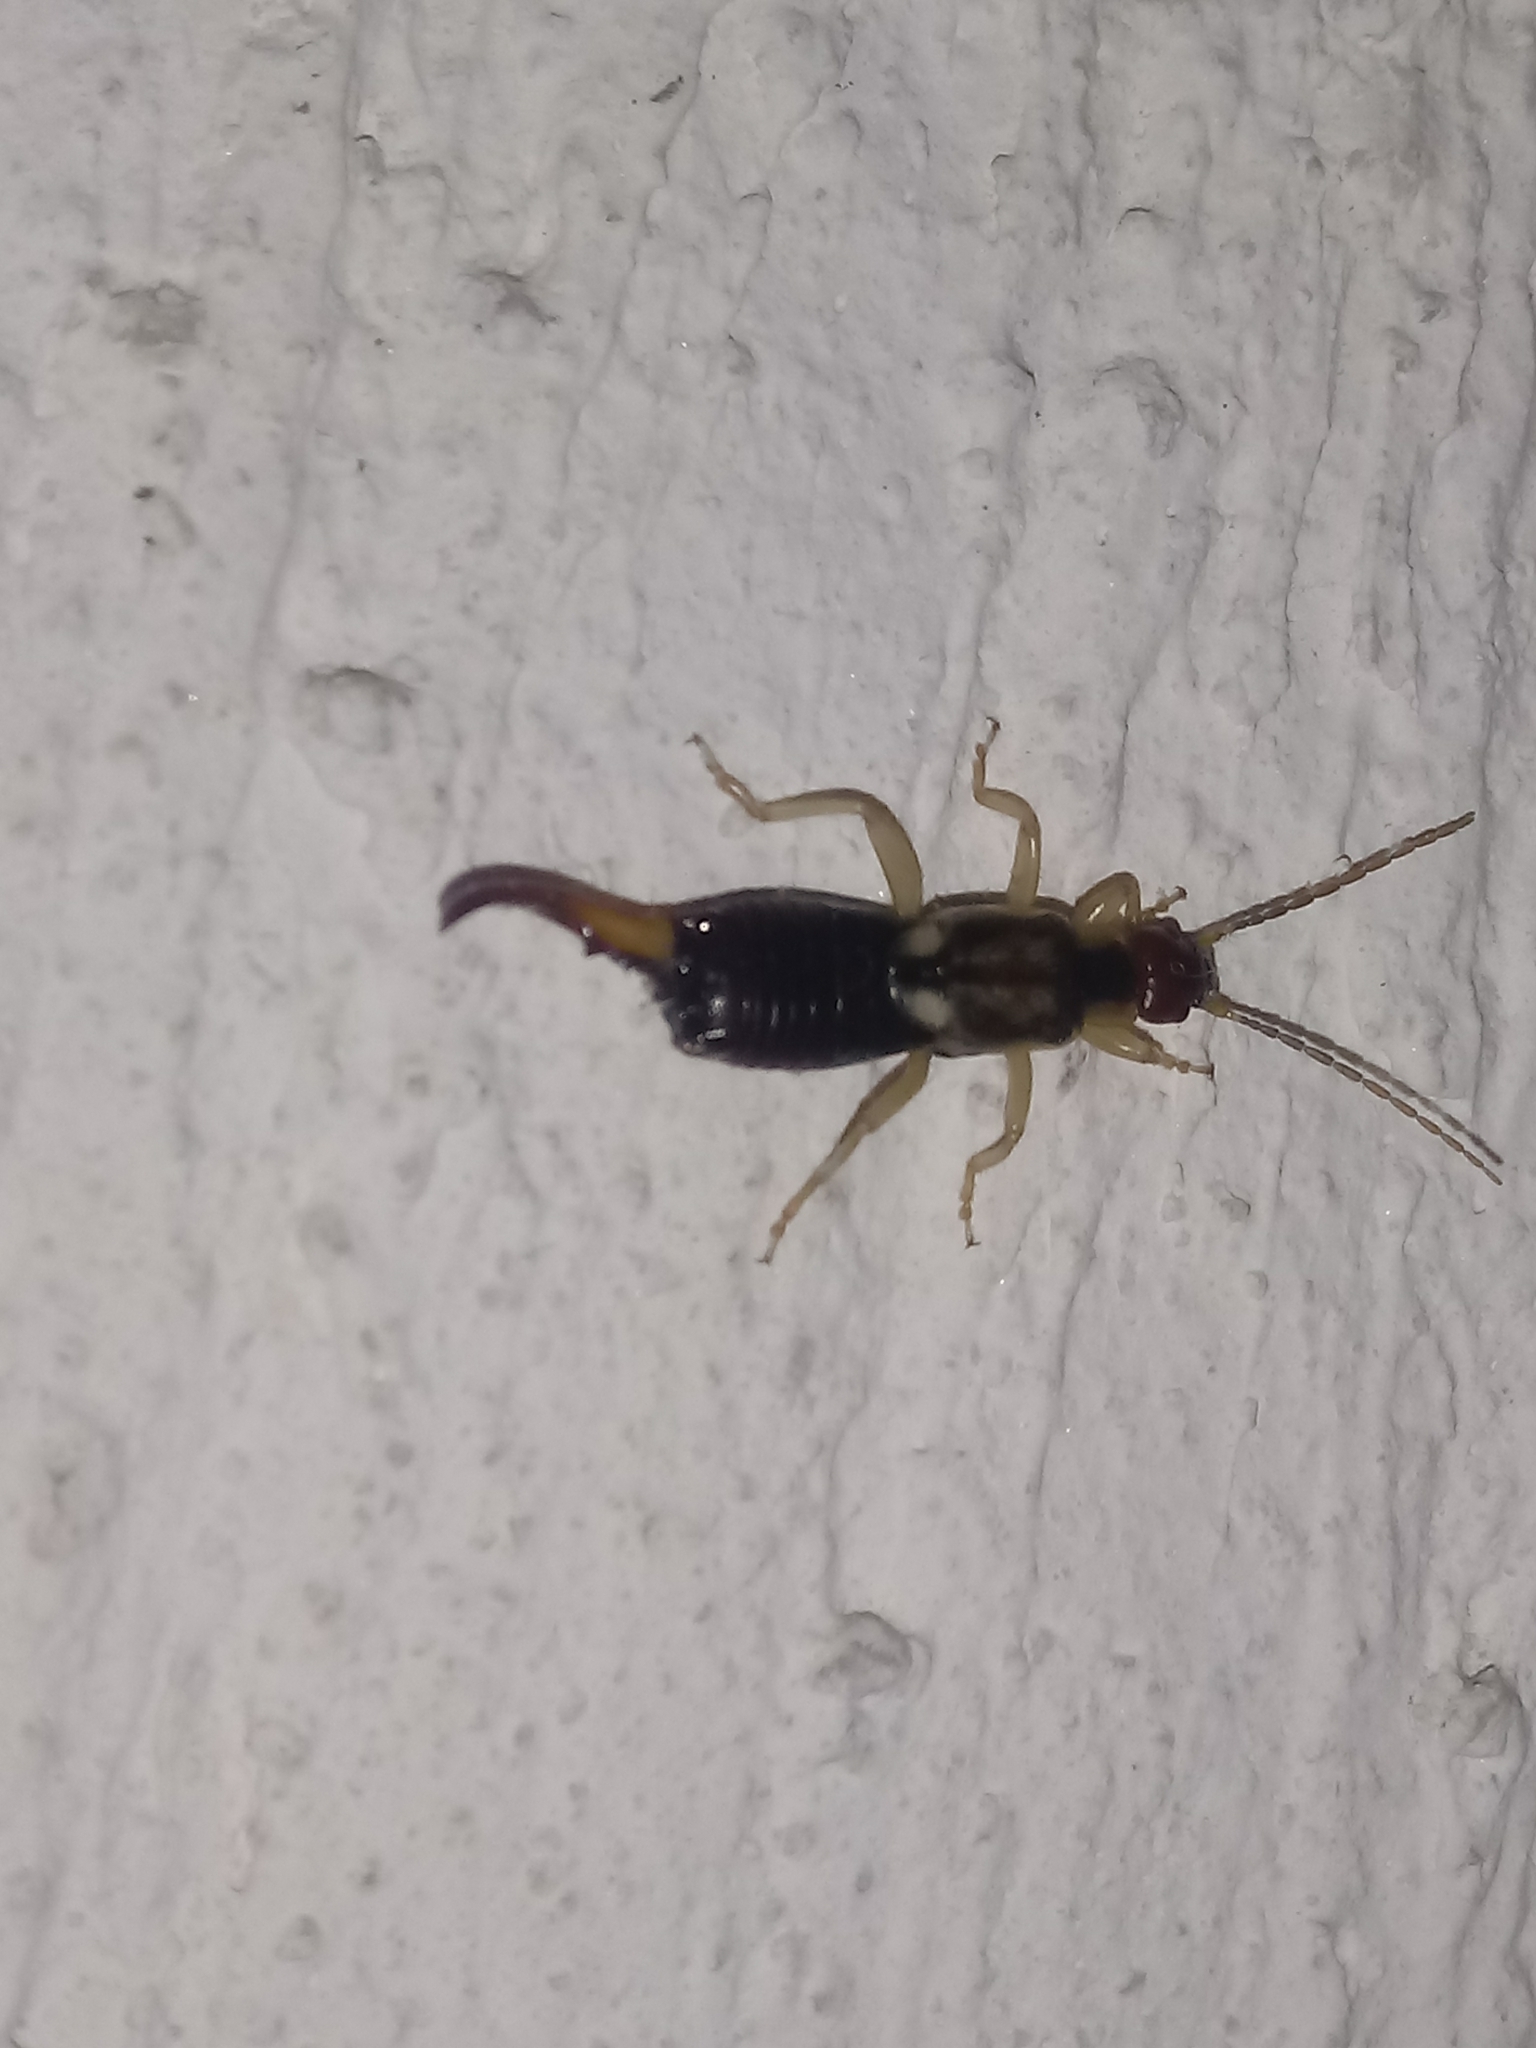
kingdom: Animalia
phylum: Arthropoda
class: Insecta
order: Dermaptera
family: Forficulidae
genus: Forficula
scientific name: Forficula
